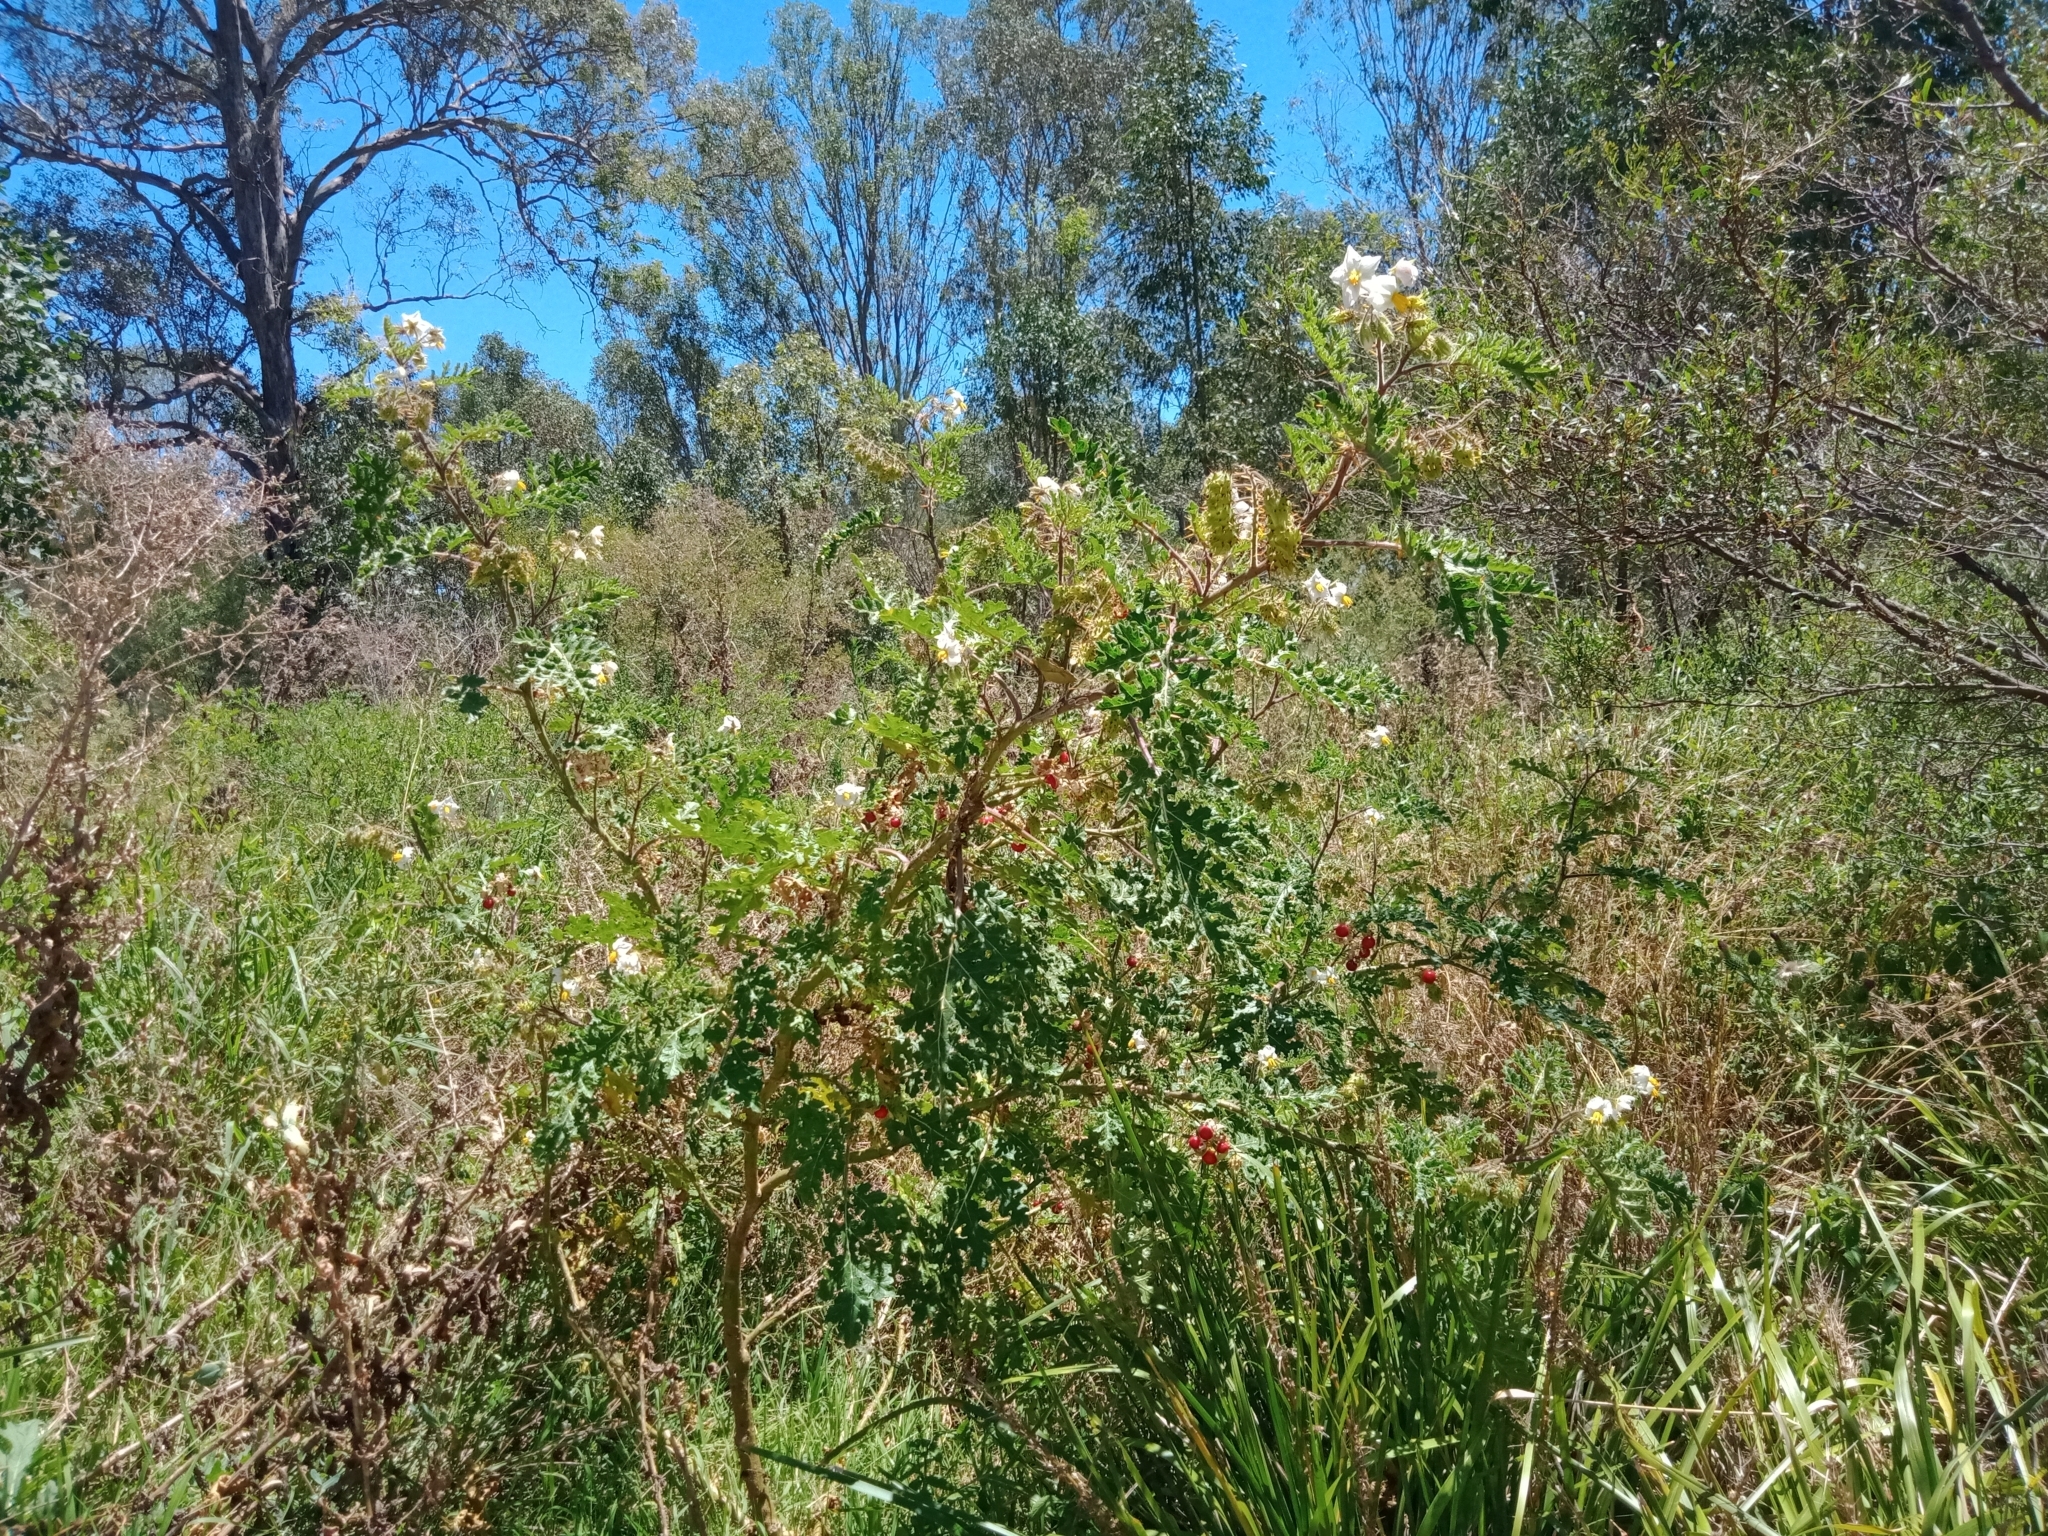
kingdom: Plantae
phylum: Tracheophyta
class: Magnoliopsida
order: Solanales
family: Solanaceae
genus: Solanum
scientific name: Solanum sisymbriifolium
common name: Red buffalo-bur
